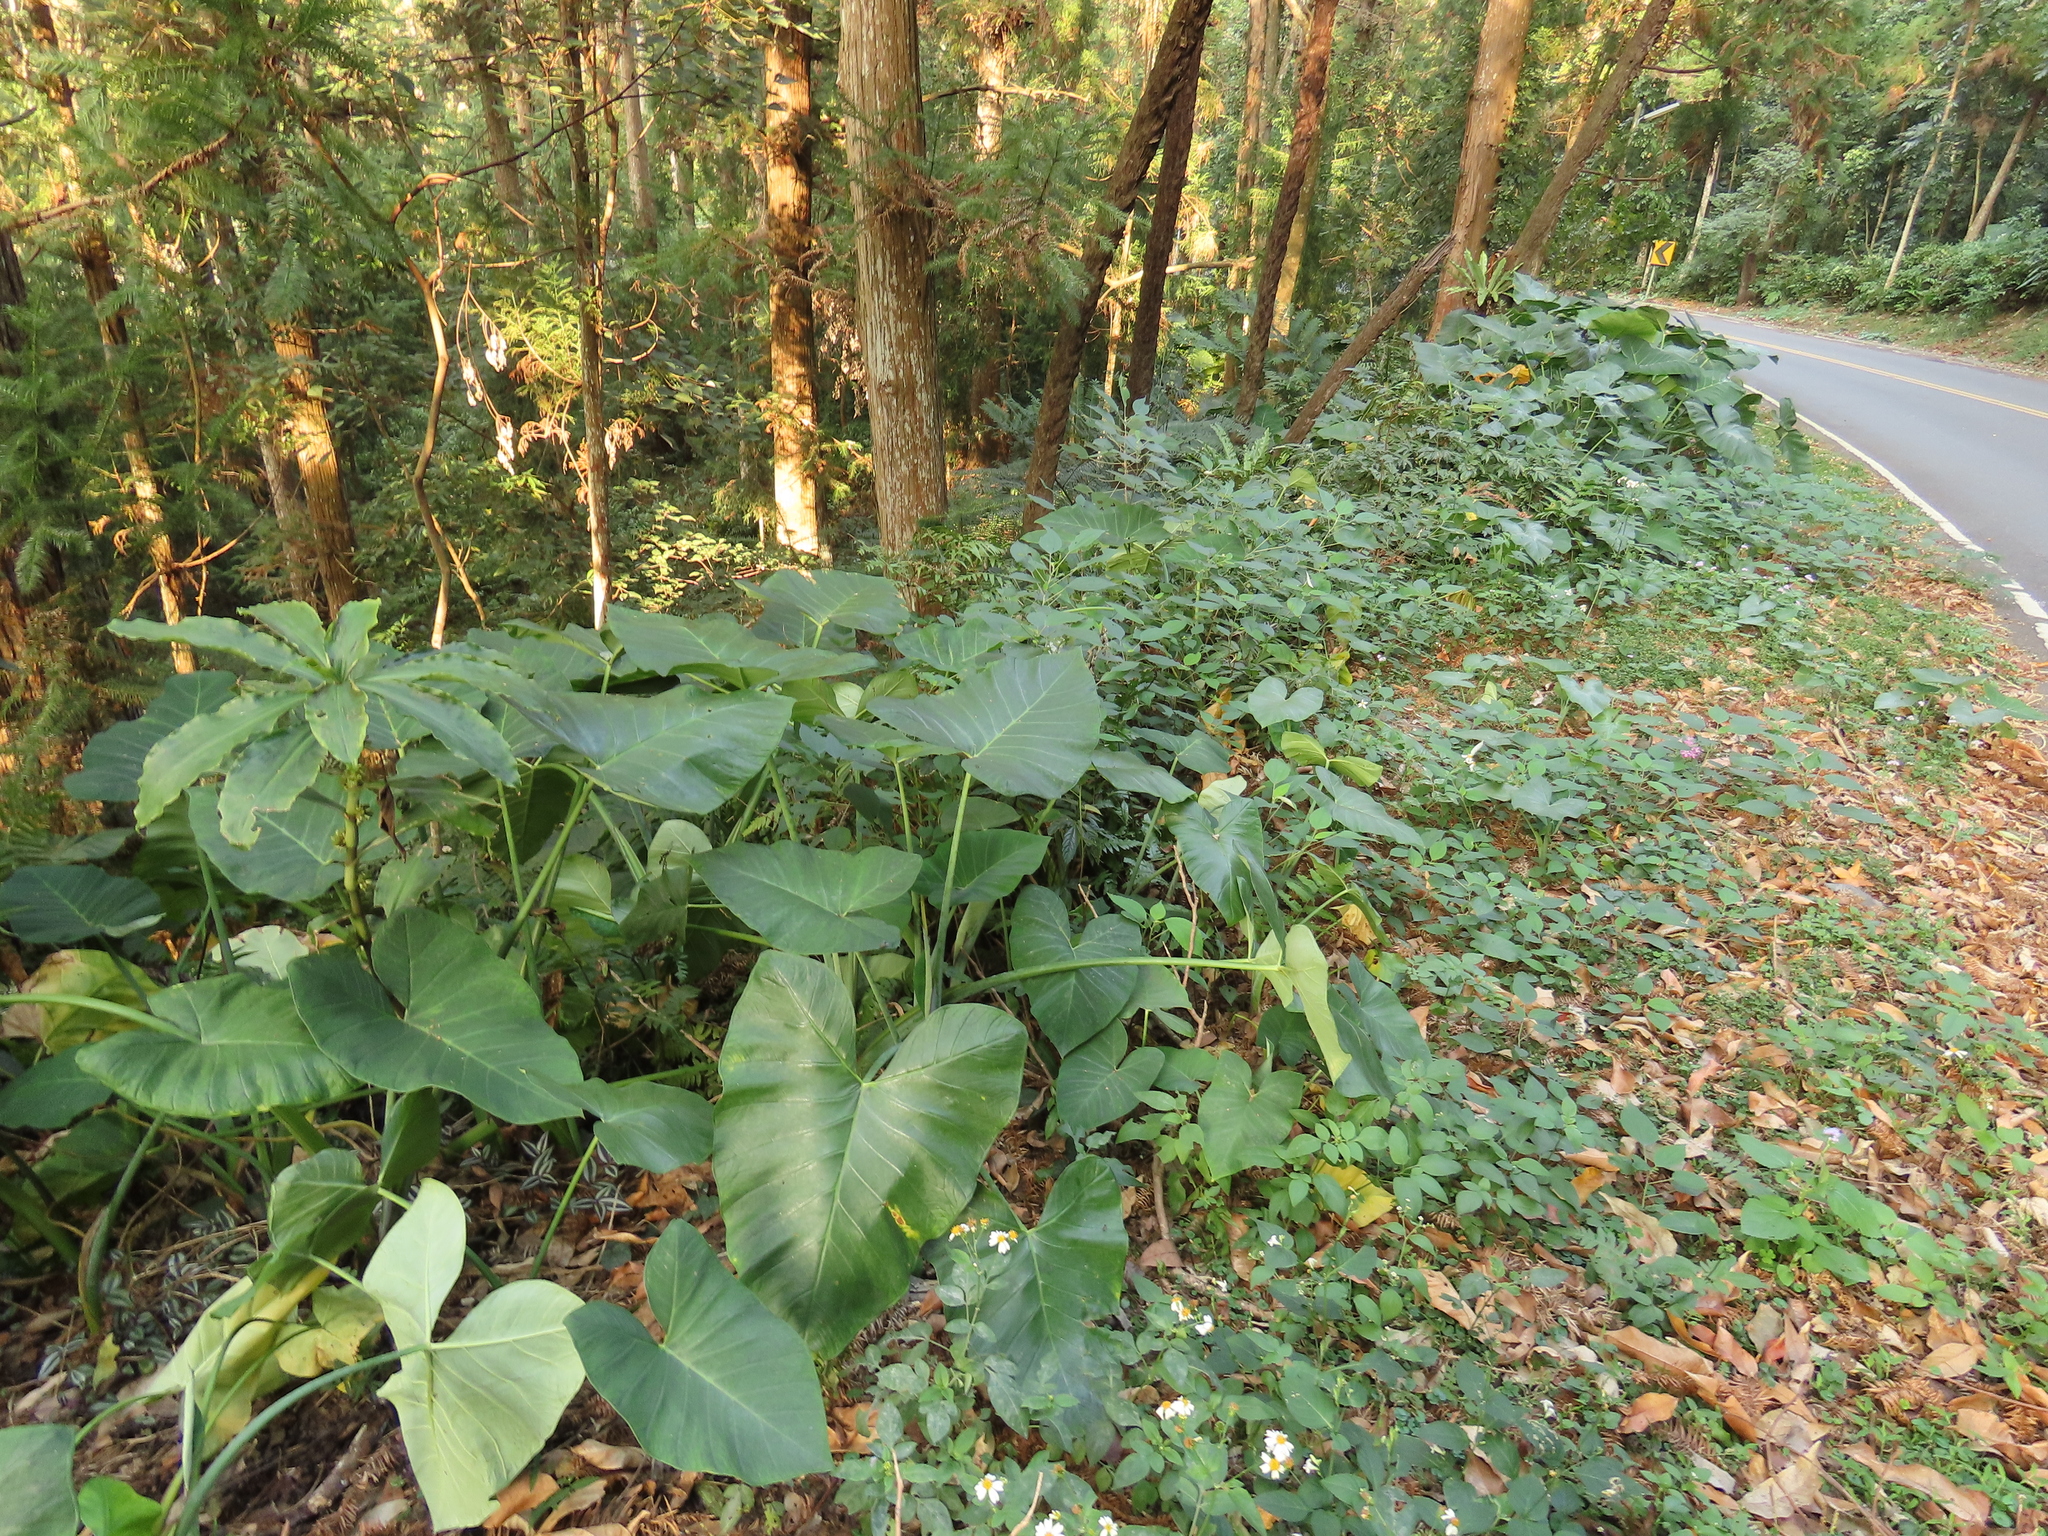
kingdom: Plantae
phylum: Tracheophyta
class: Liliopsida
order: Alismatales
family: Araceae
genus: Xanthosoma
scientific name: Xanthosoma sagittifolium
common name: Arrowleaf elephant's ear
